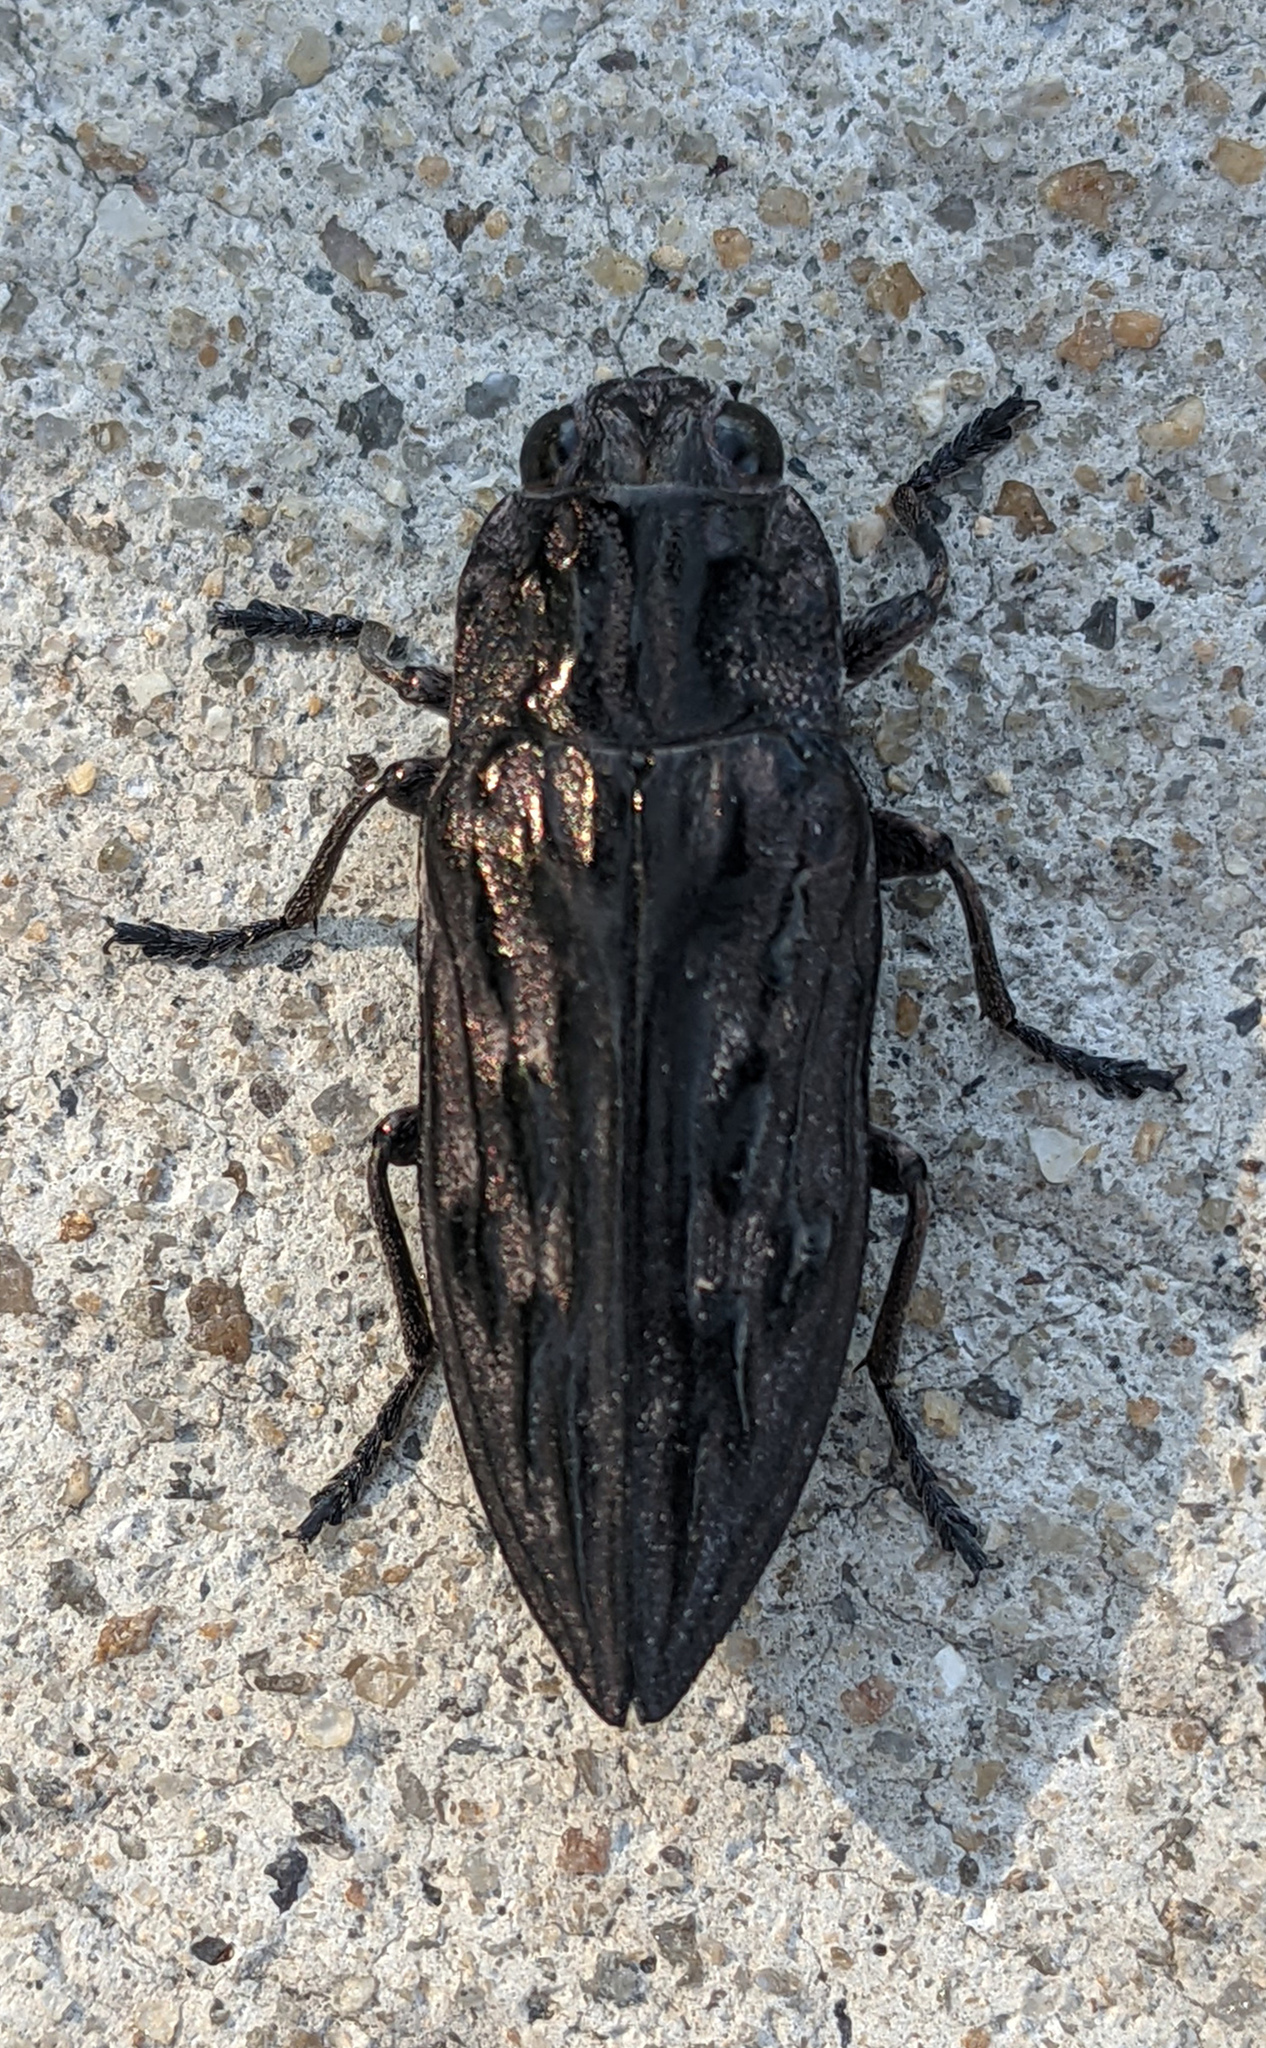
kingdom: Animalia
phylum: Arthropoda
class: Insecta
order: Coleoptera
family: Buprestidae
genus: Chalcophora
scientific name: Chalcophora virginiensis
